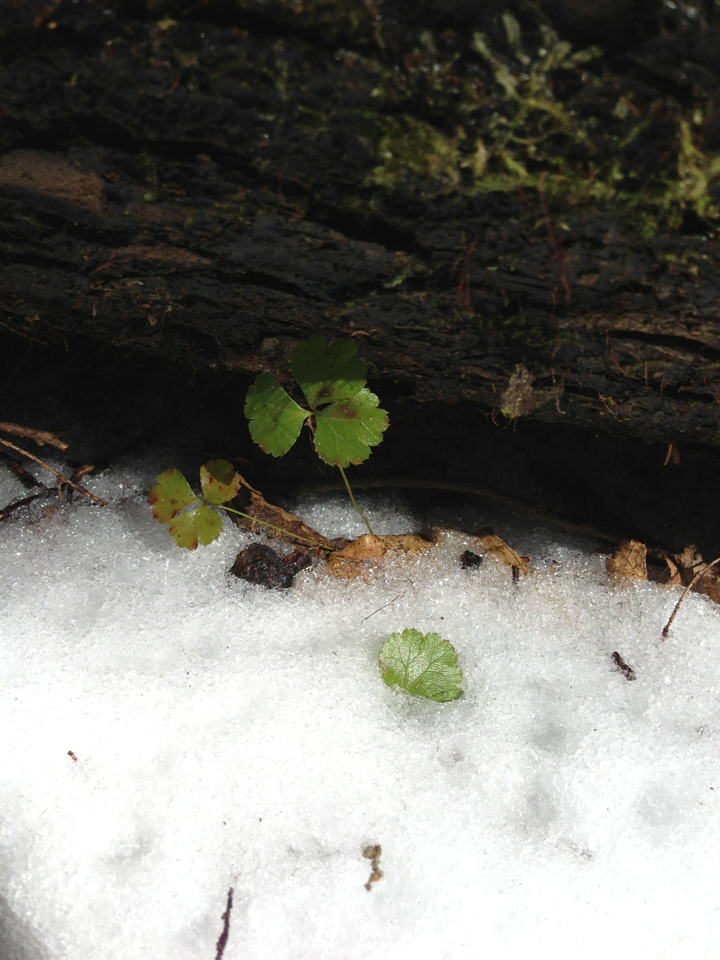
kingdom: Plantae
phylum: Tracheophyta
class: Magnoliopsida
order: Ranunculales
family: Ranunculaceae
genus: Coptis
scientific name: Coptis trifolia
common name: Canker-root
